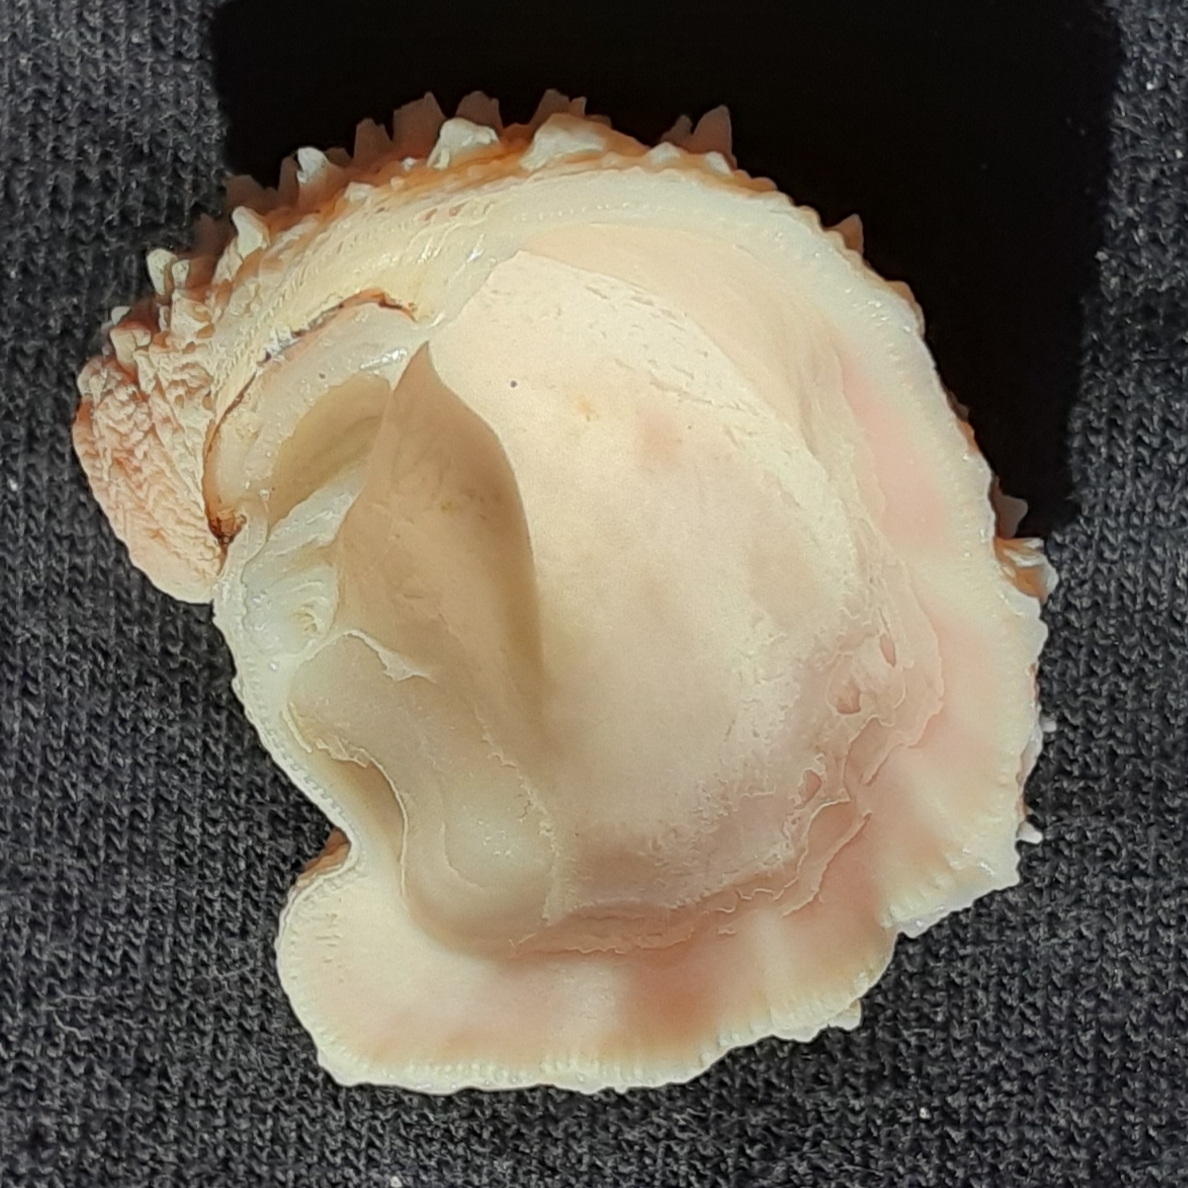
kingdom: Animalia
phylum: Mollusca
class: Bivalvia
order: Venerida
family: Chamidae
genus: Arcinella
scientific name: Arcinella cornuta
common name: Florida spiny jewel box
